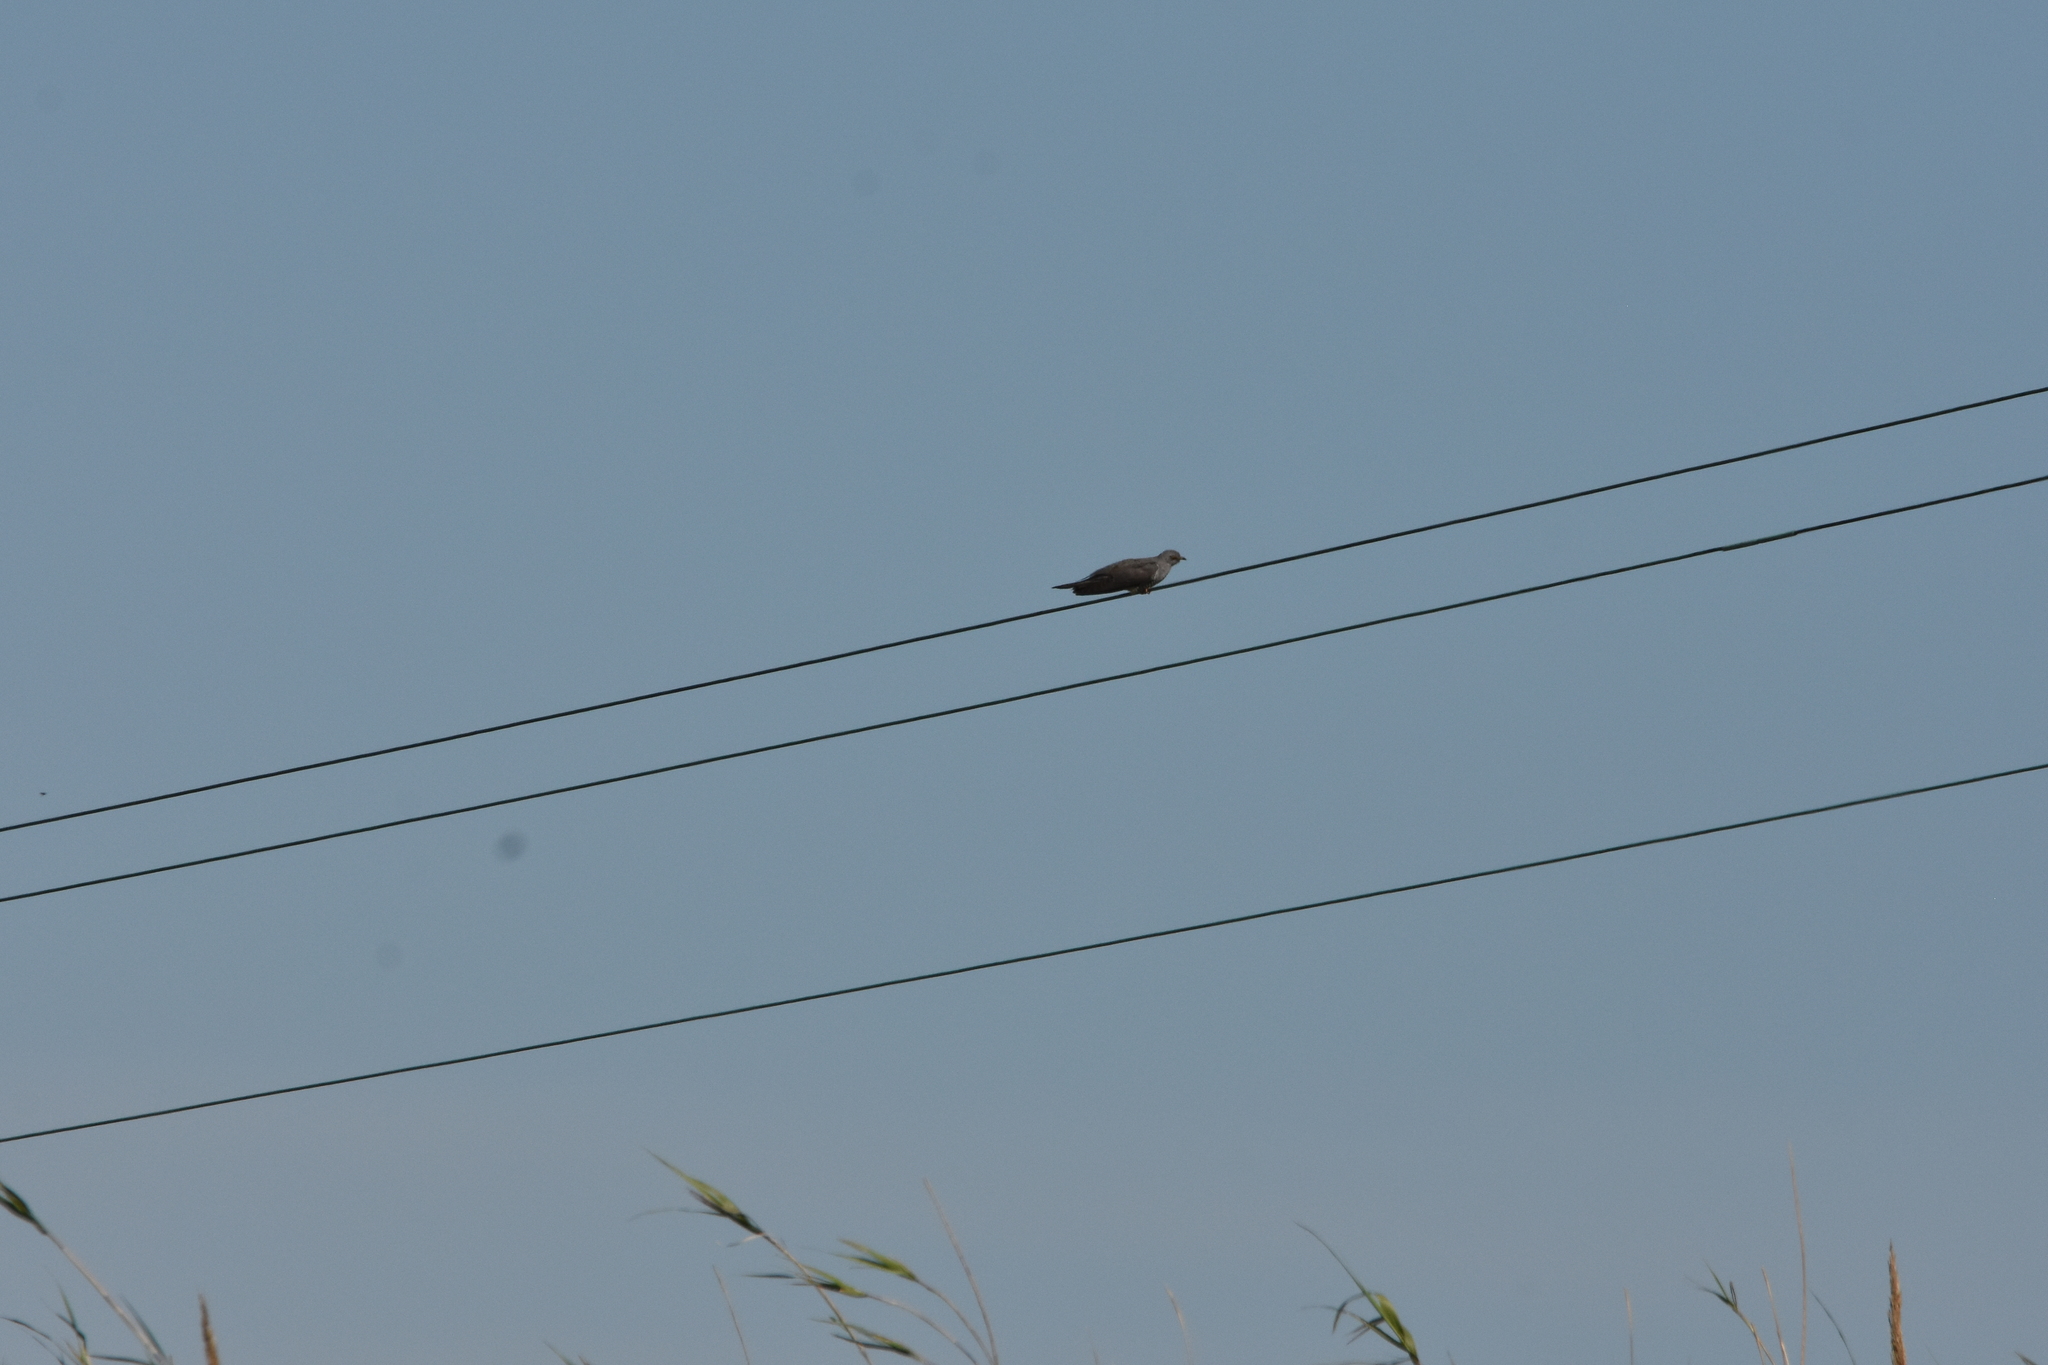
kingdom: Animalia
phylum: Chordata
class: Aves
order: Cuculiformes
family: Cuculidae
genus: Cuculus
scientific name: Cuculus canorus
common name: Common cuckoo
